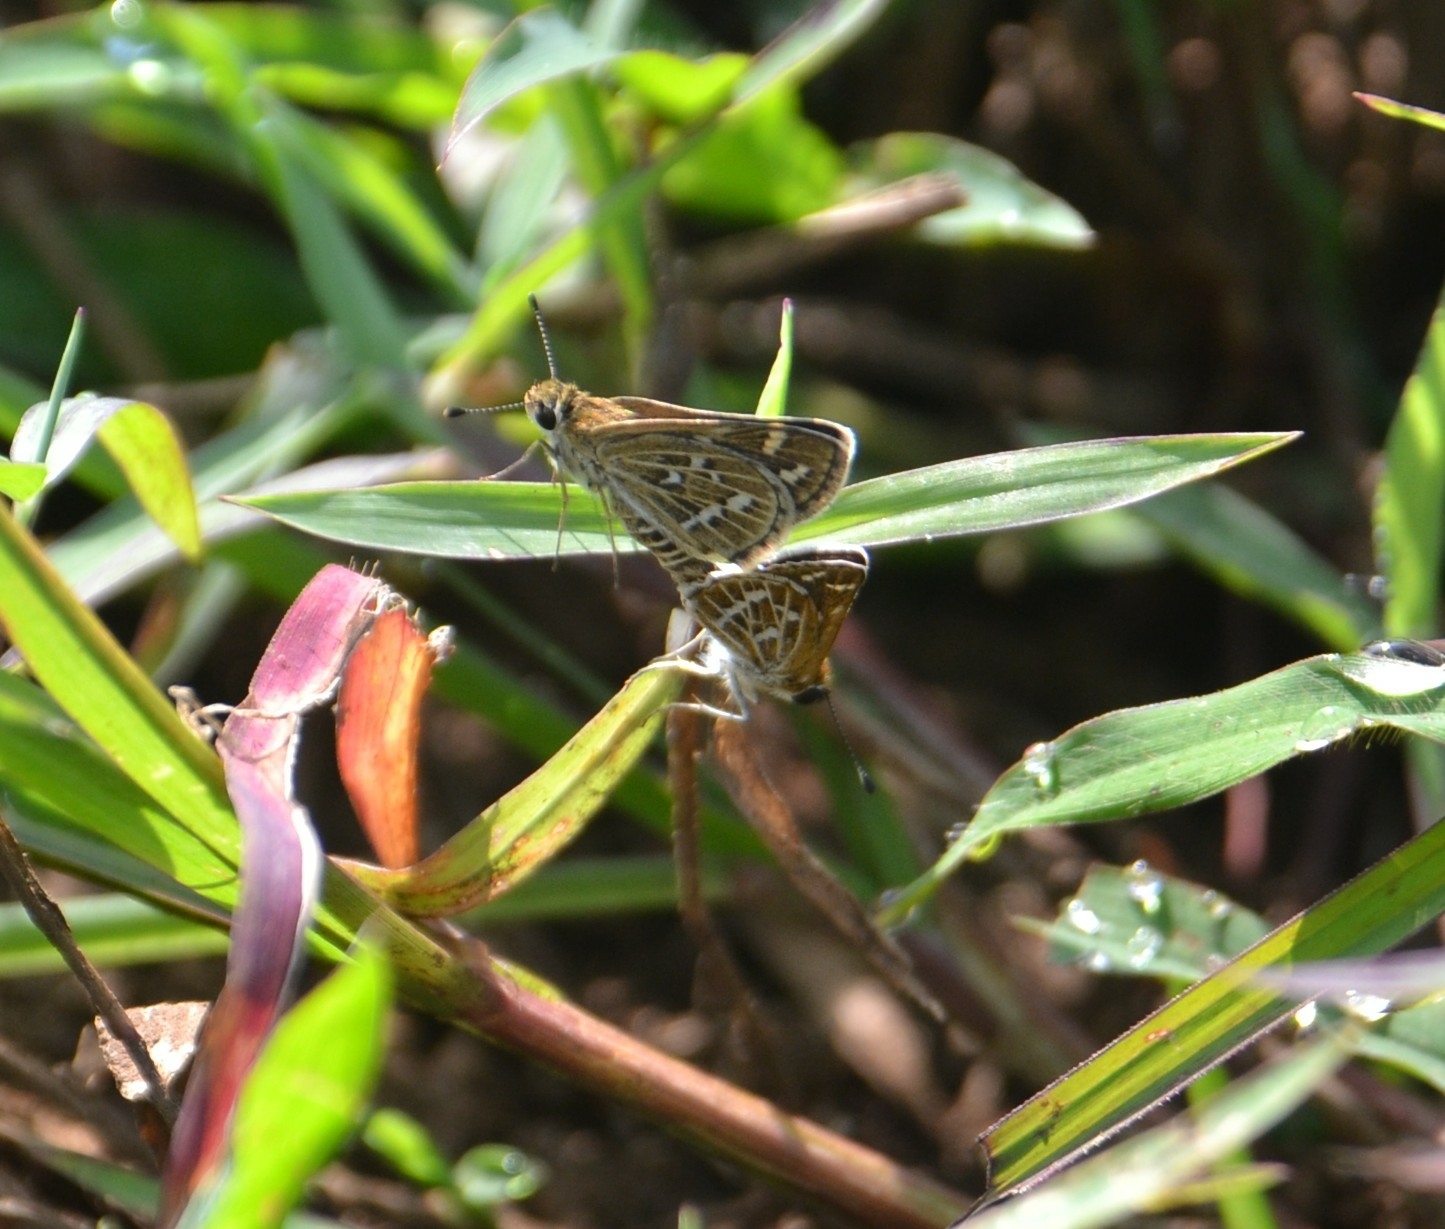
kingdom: Animalia
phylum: Arthropoda
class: Insecta
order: Lepidoptera
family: Hesperiidae
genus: Taractrocera
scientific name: Taractrocera maevius
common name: Common grass-dart
